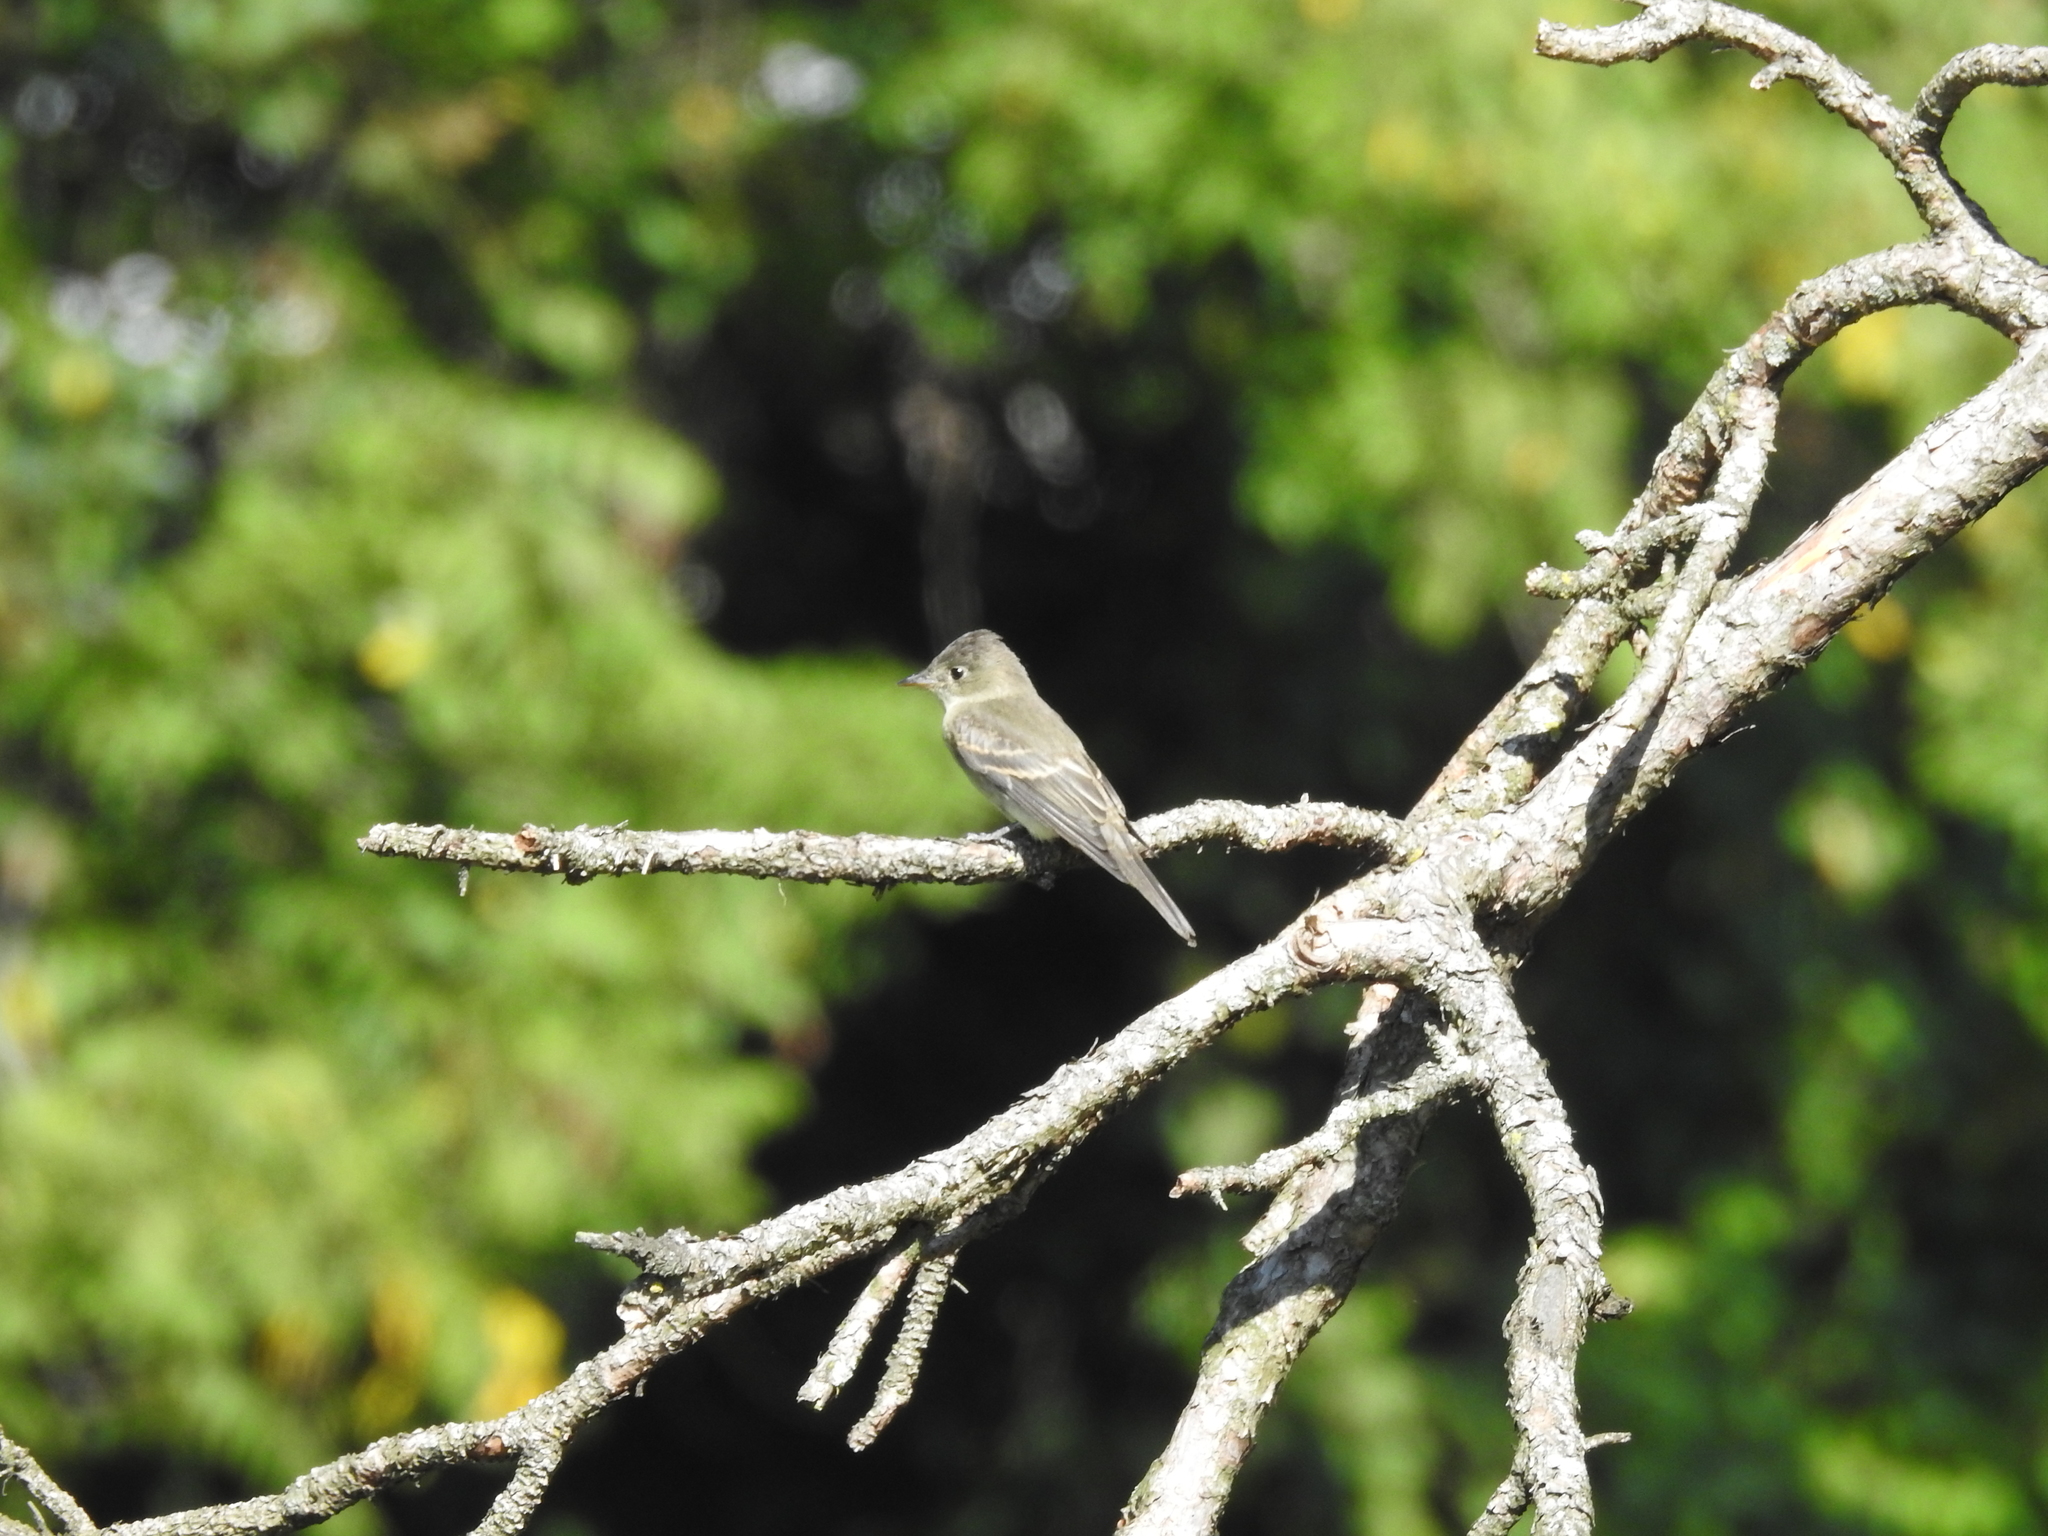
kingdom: Animalia
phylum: Chordata
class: Aves
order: Passeriformes
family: Tyrannidae
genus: Contopus
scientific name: Contopus virens
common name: Eastern wood-pewee
